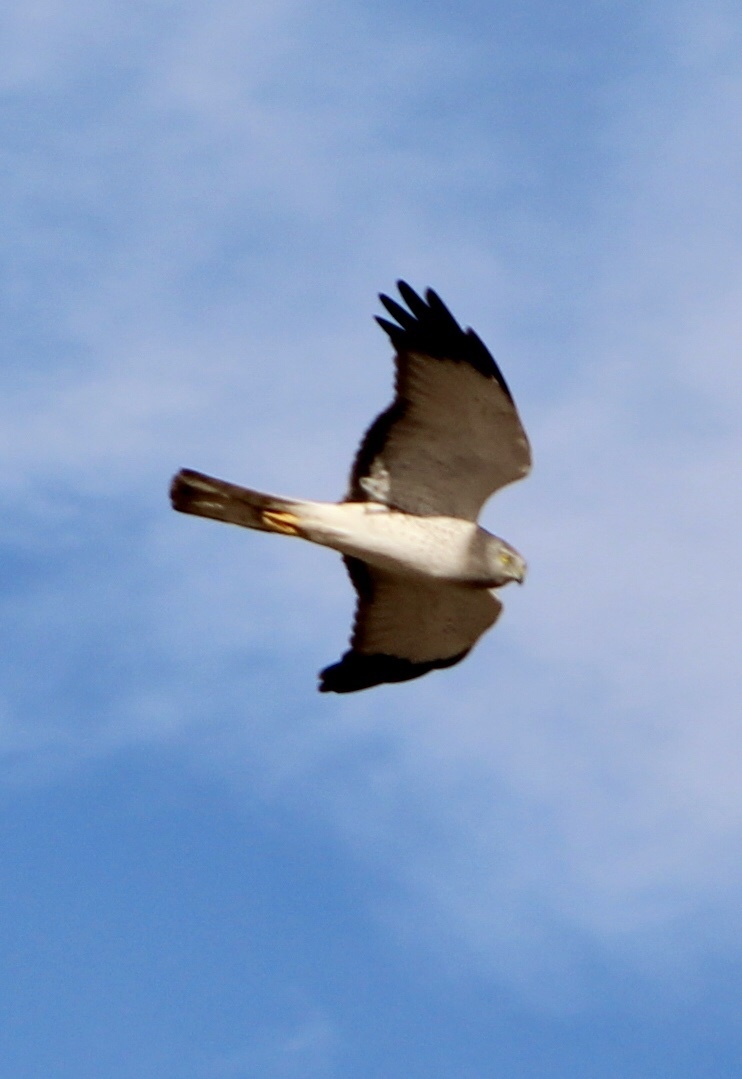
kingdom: Animalia
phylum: Chordata
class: Aves
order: Accipitriformes
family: Accipitridae
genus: Circus
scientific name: Circus cyaneus
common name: Hen harrier
